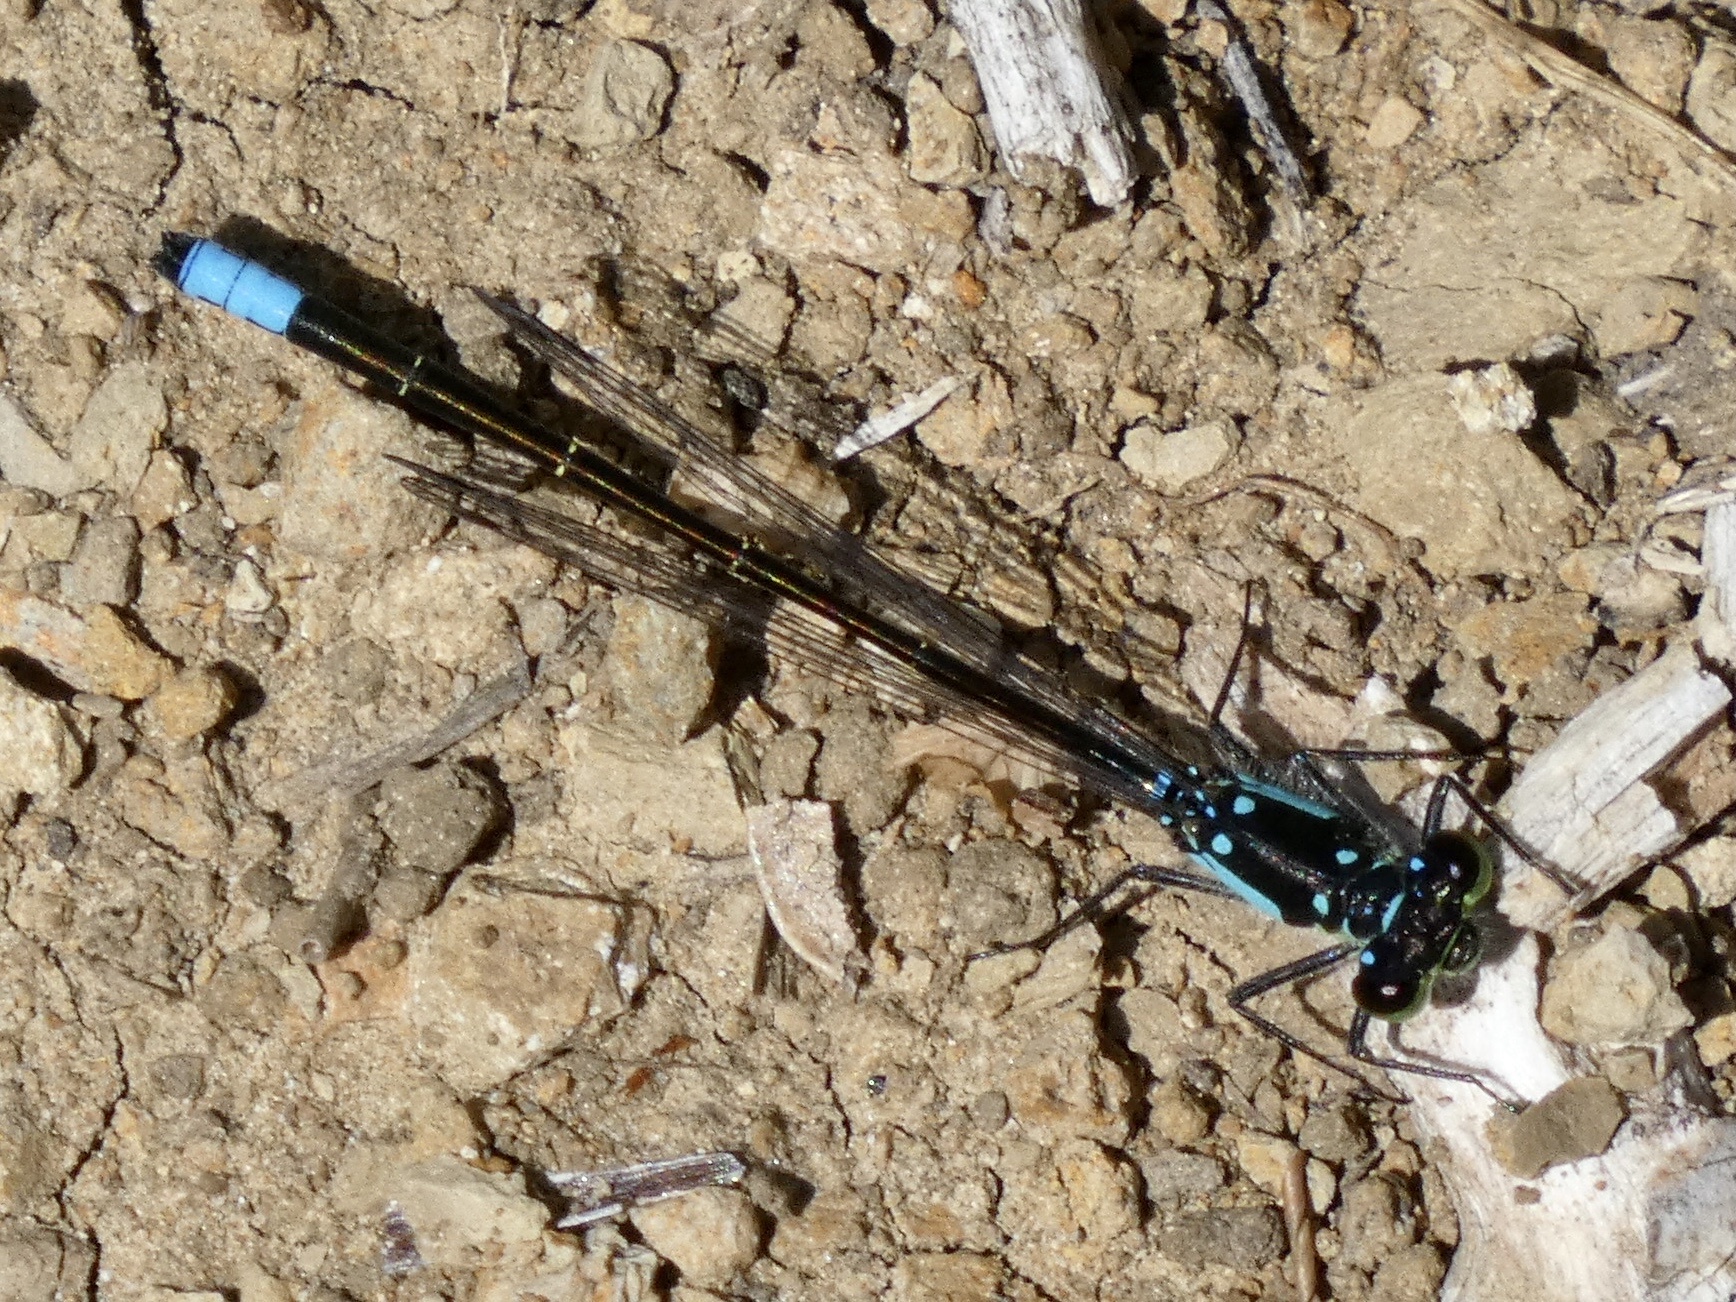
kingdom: Animalia
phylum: Arthropoda
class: Insecta
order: Odonata
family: Coenagrionidae
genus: Ischnura
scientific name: Ischnura cervula
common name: Pacific forktail
